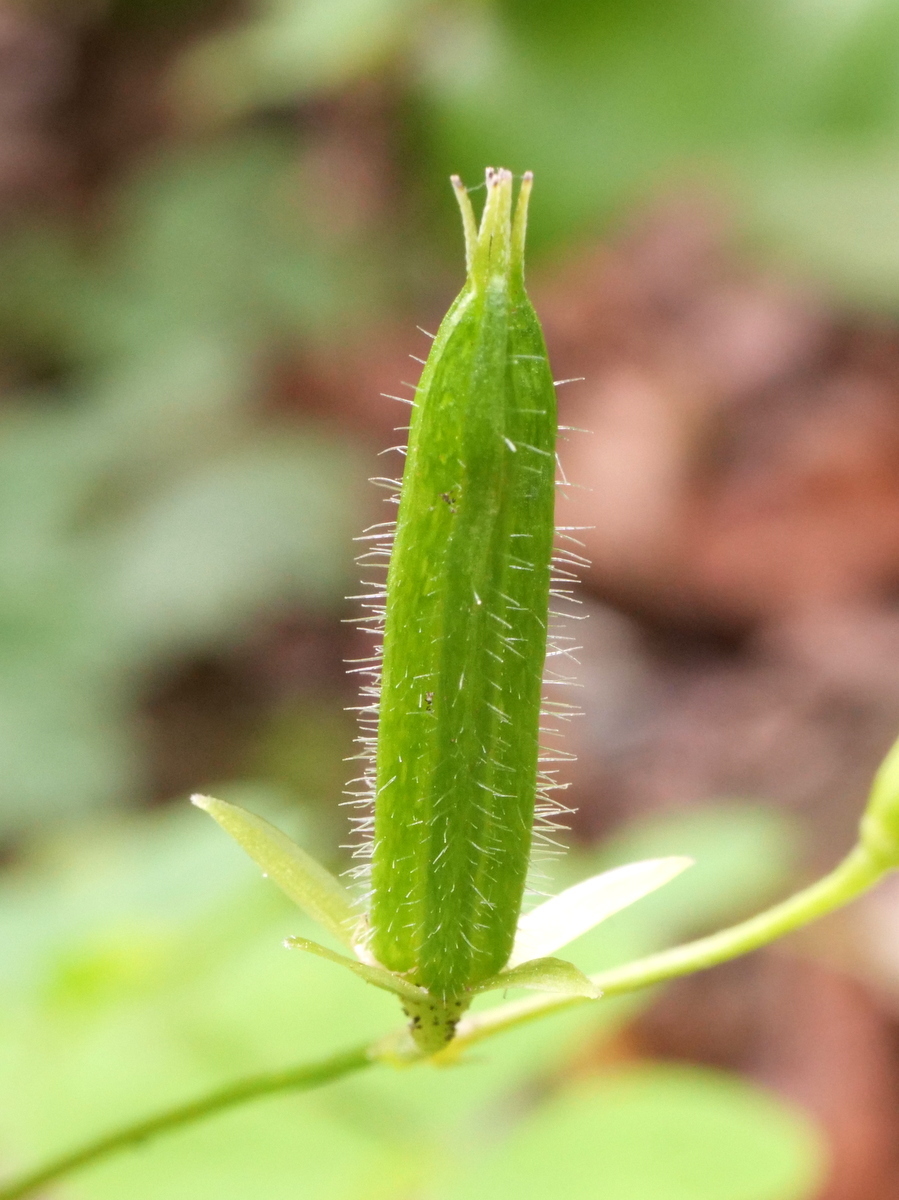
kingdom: Plantae
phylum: Tracheophyta
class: Magnoliopsida
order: Oxalidales
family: Oxalidaceae
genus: Oxalis
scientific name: Oxalis stricta
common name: Upright yellow-sorrel
